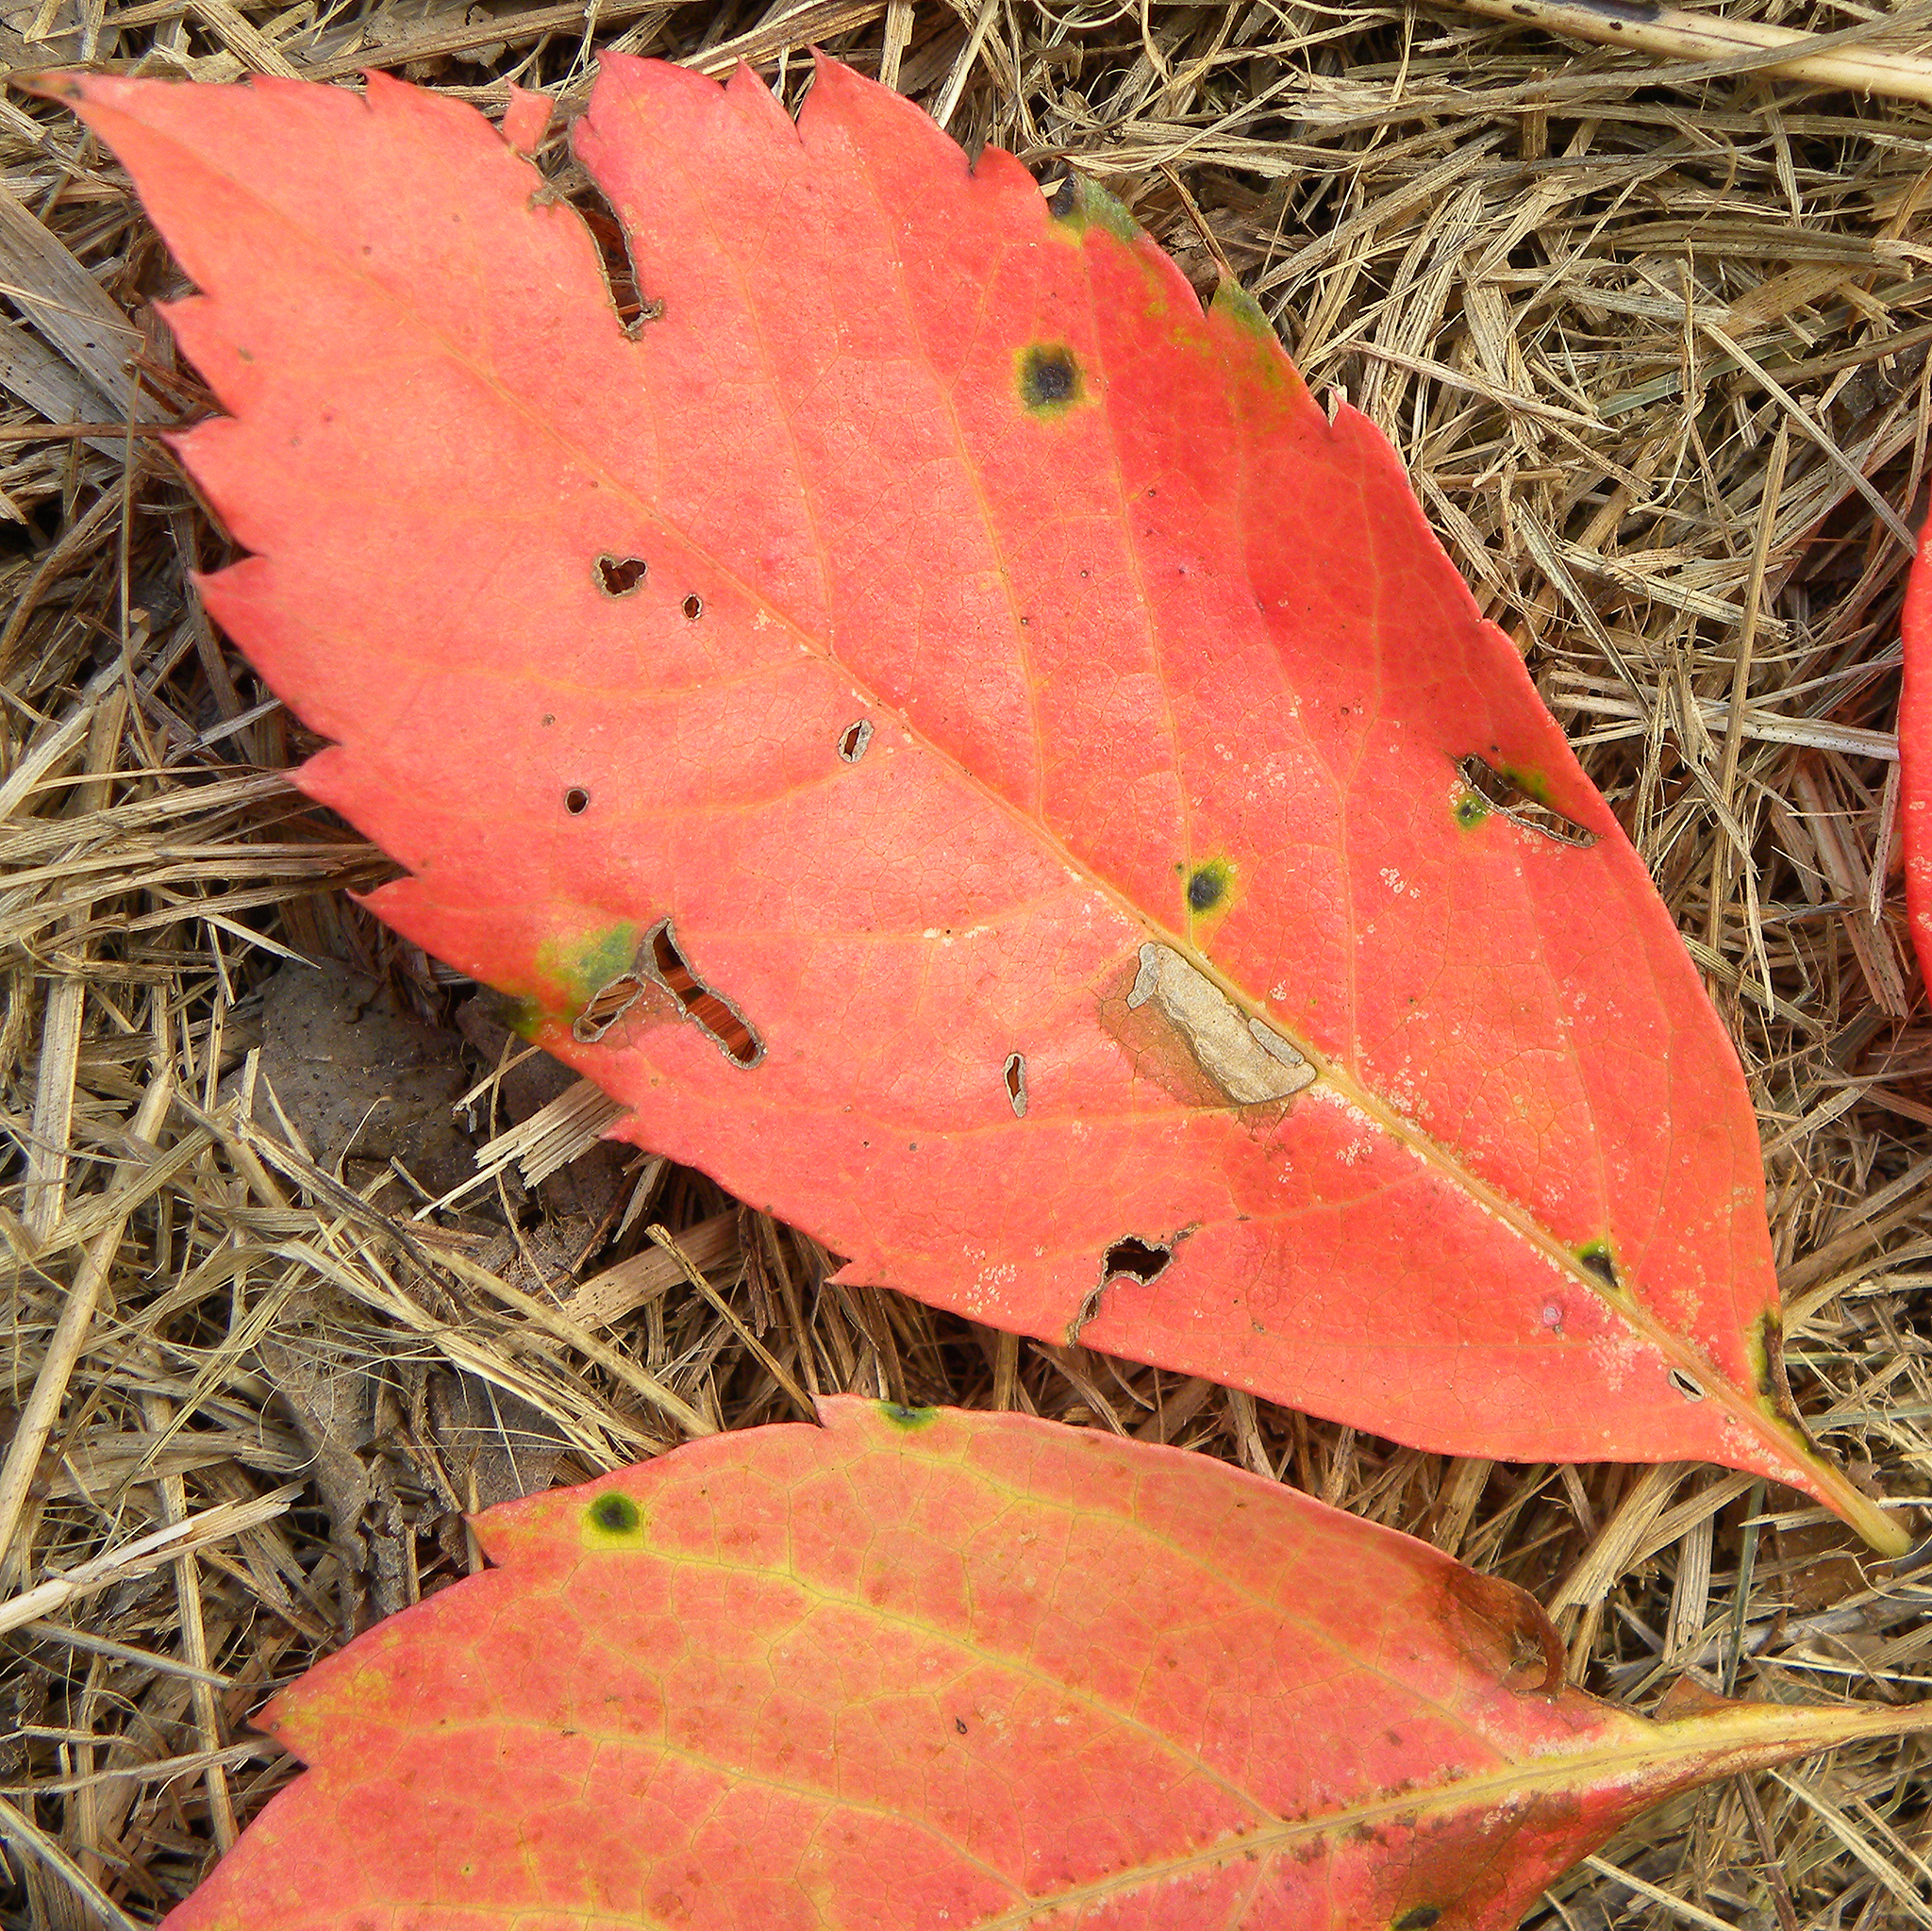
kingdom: Plantae
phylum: Tracheophyta
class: Magnoliopsida
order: Vitales
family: Vitaceae
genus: Parthenocissus
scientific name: Parthenocissus quinquefolia
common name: Virginia-creeper
